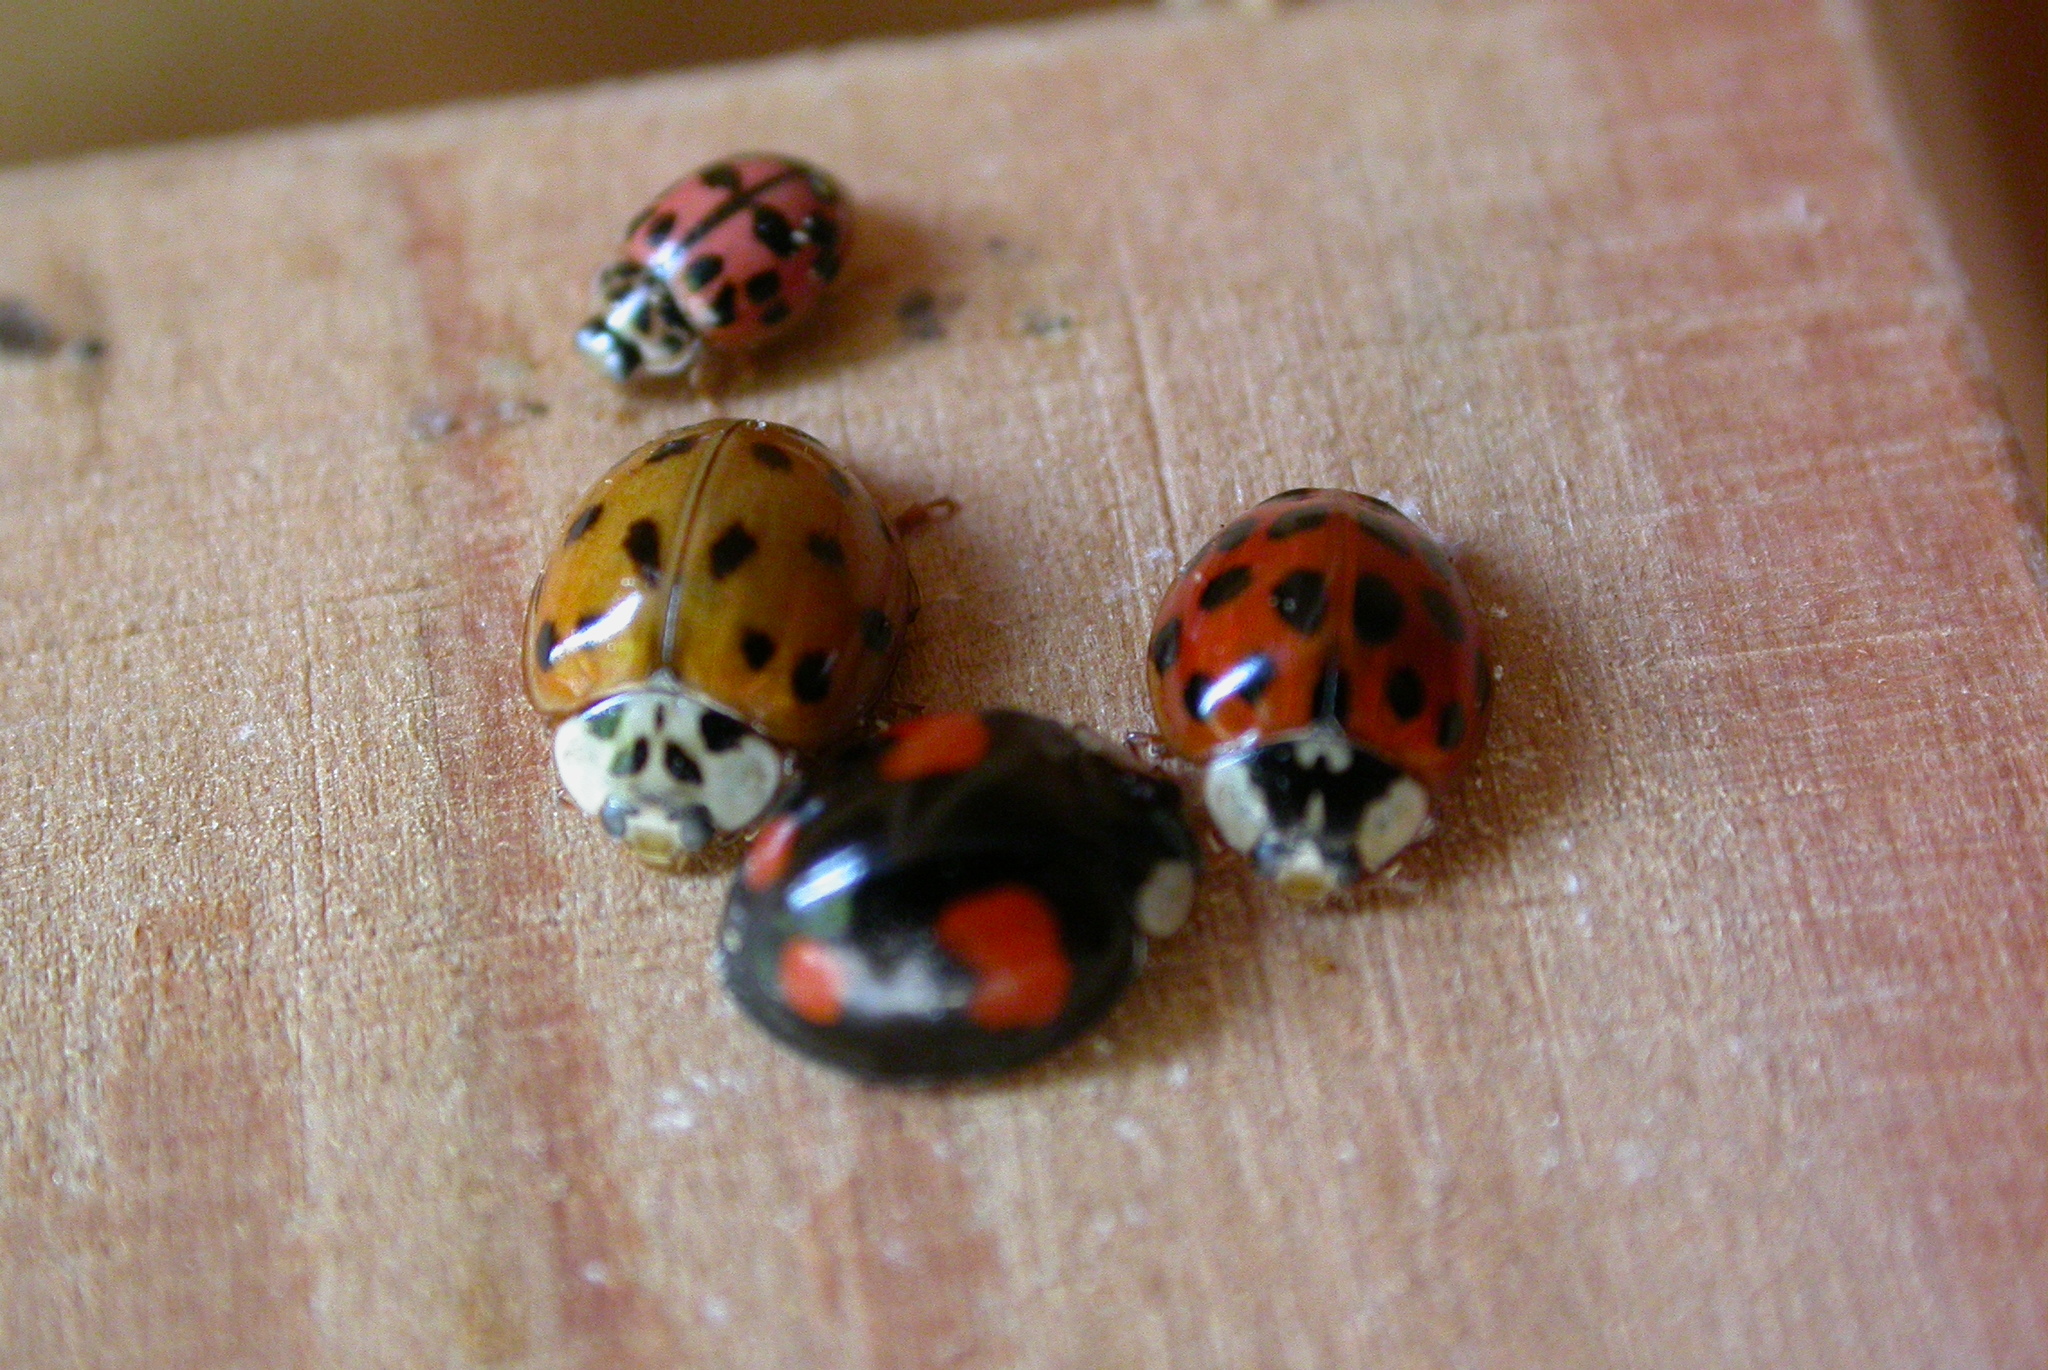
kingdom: Animalia
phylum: Arthropoda
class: Insecta
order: Coleoptera
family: Coccinellidae
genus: Oenopia
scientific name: Oenopia conglobata
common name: Ladybird beetle
